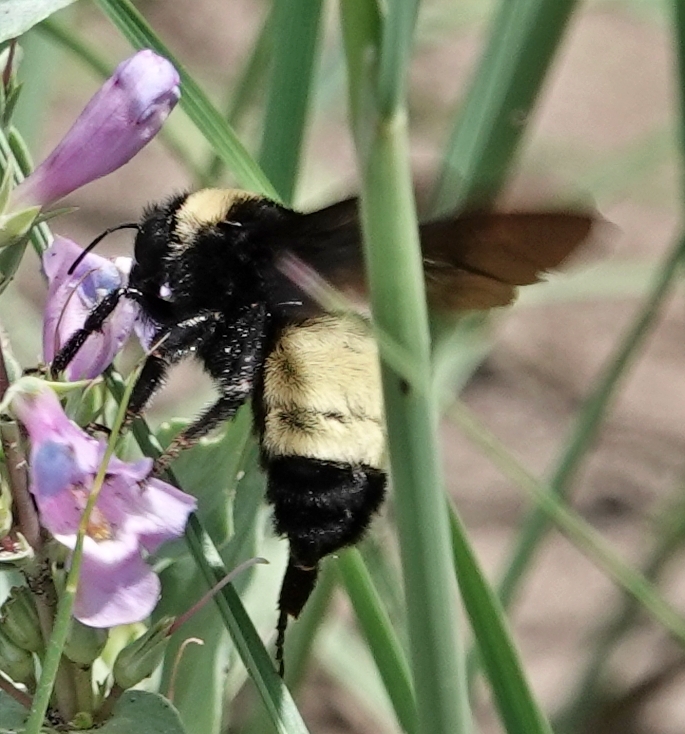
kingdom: Animalia
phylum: Arthropoda
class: Insecta
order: Hymenoptera
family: Apidae
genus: Bombus
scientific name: Bombus pensylvanicus
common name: Bumble bee
